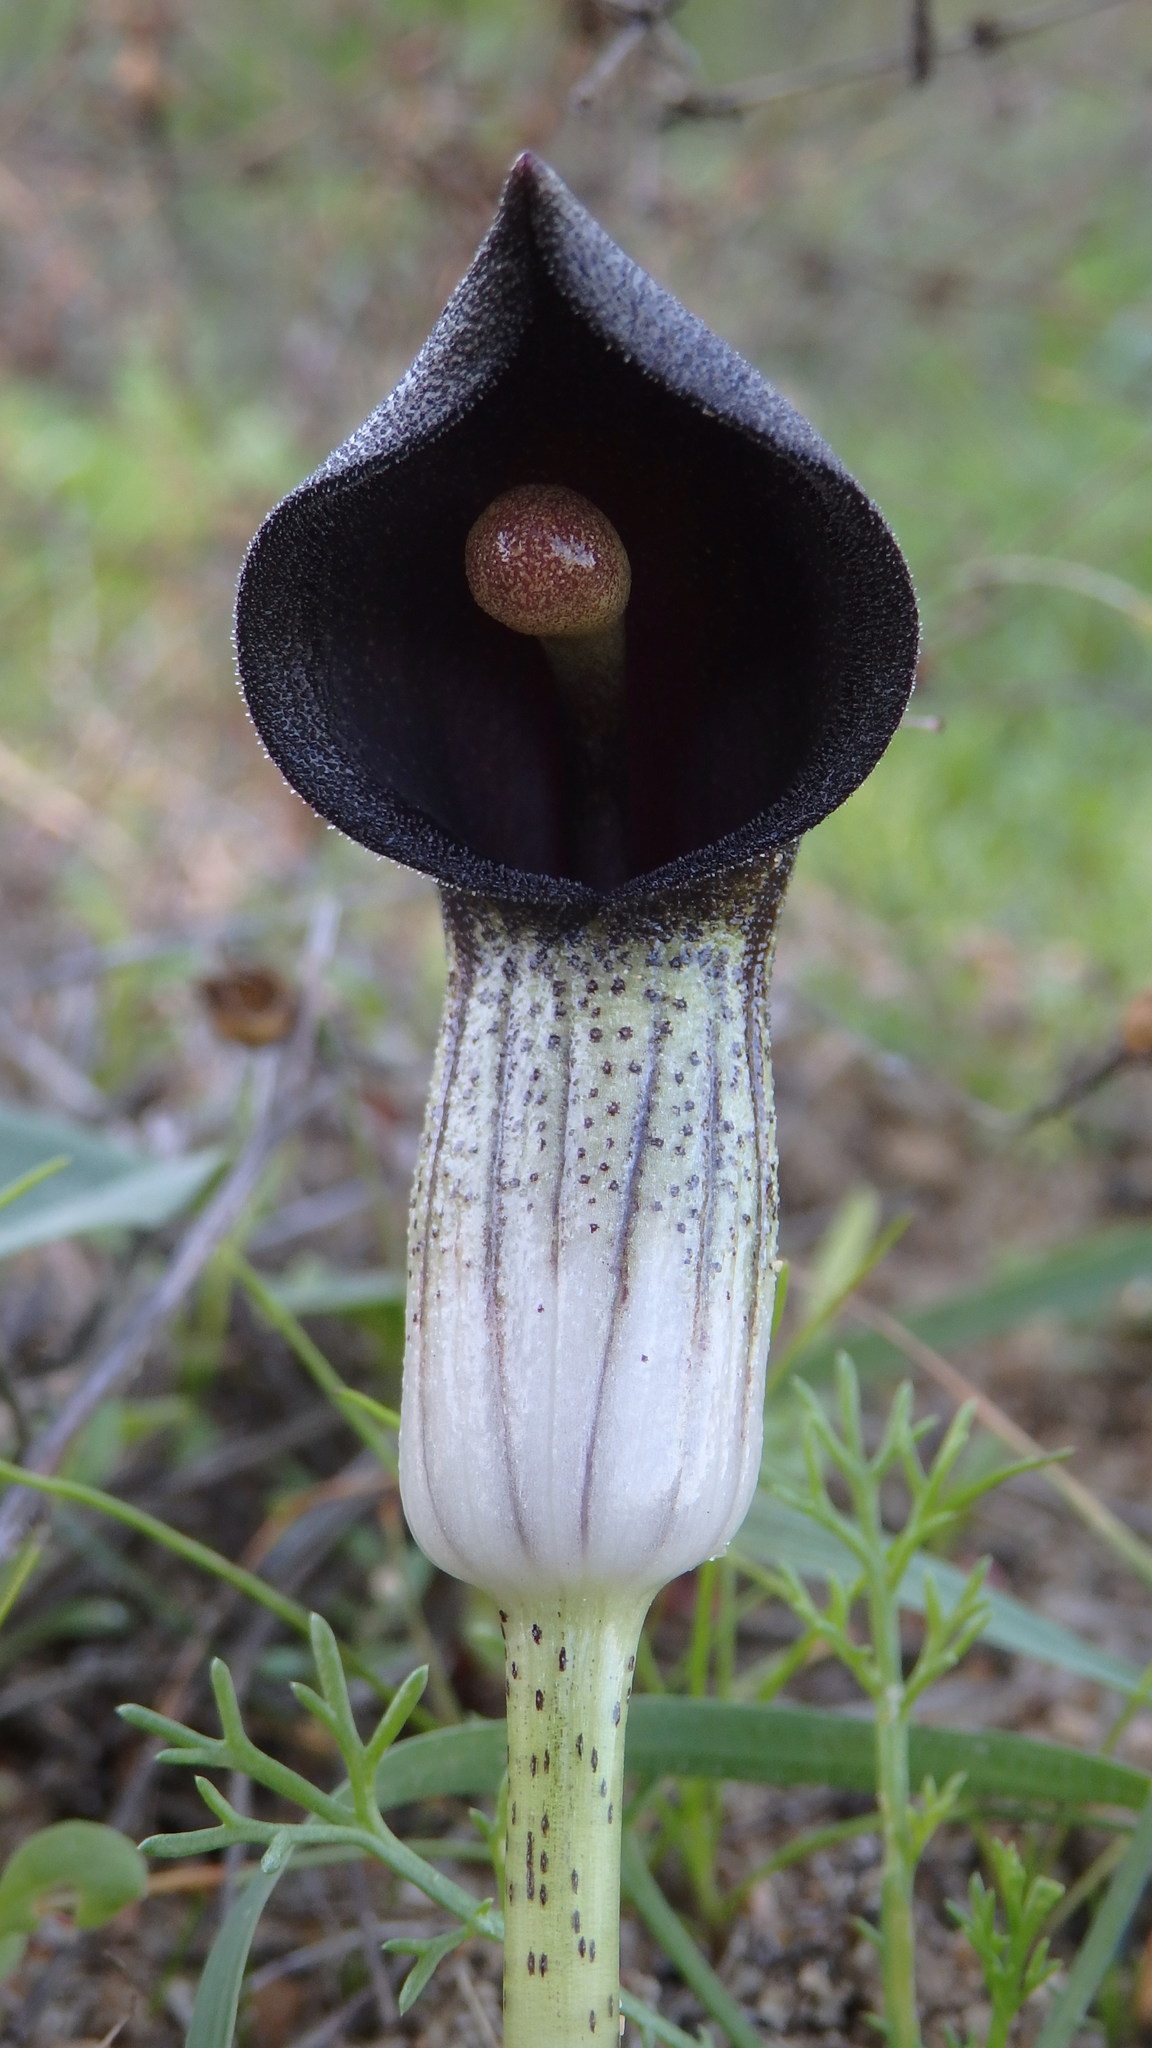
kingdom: Plantae
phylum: Tracheophyta
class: Liliopsida
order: Alismatales
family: Araceae
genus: Arisarum
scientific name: Arisarum simorrhinum
